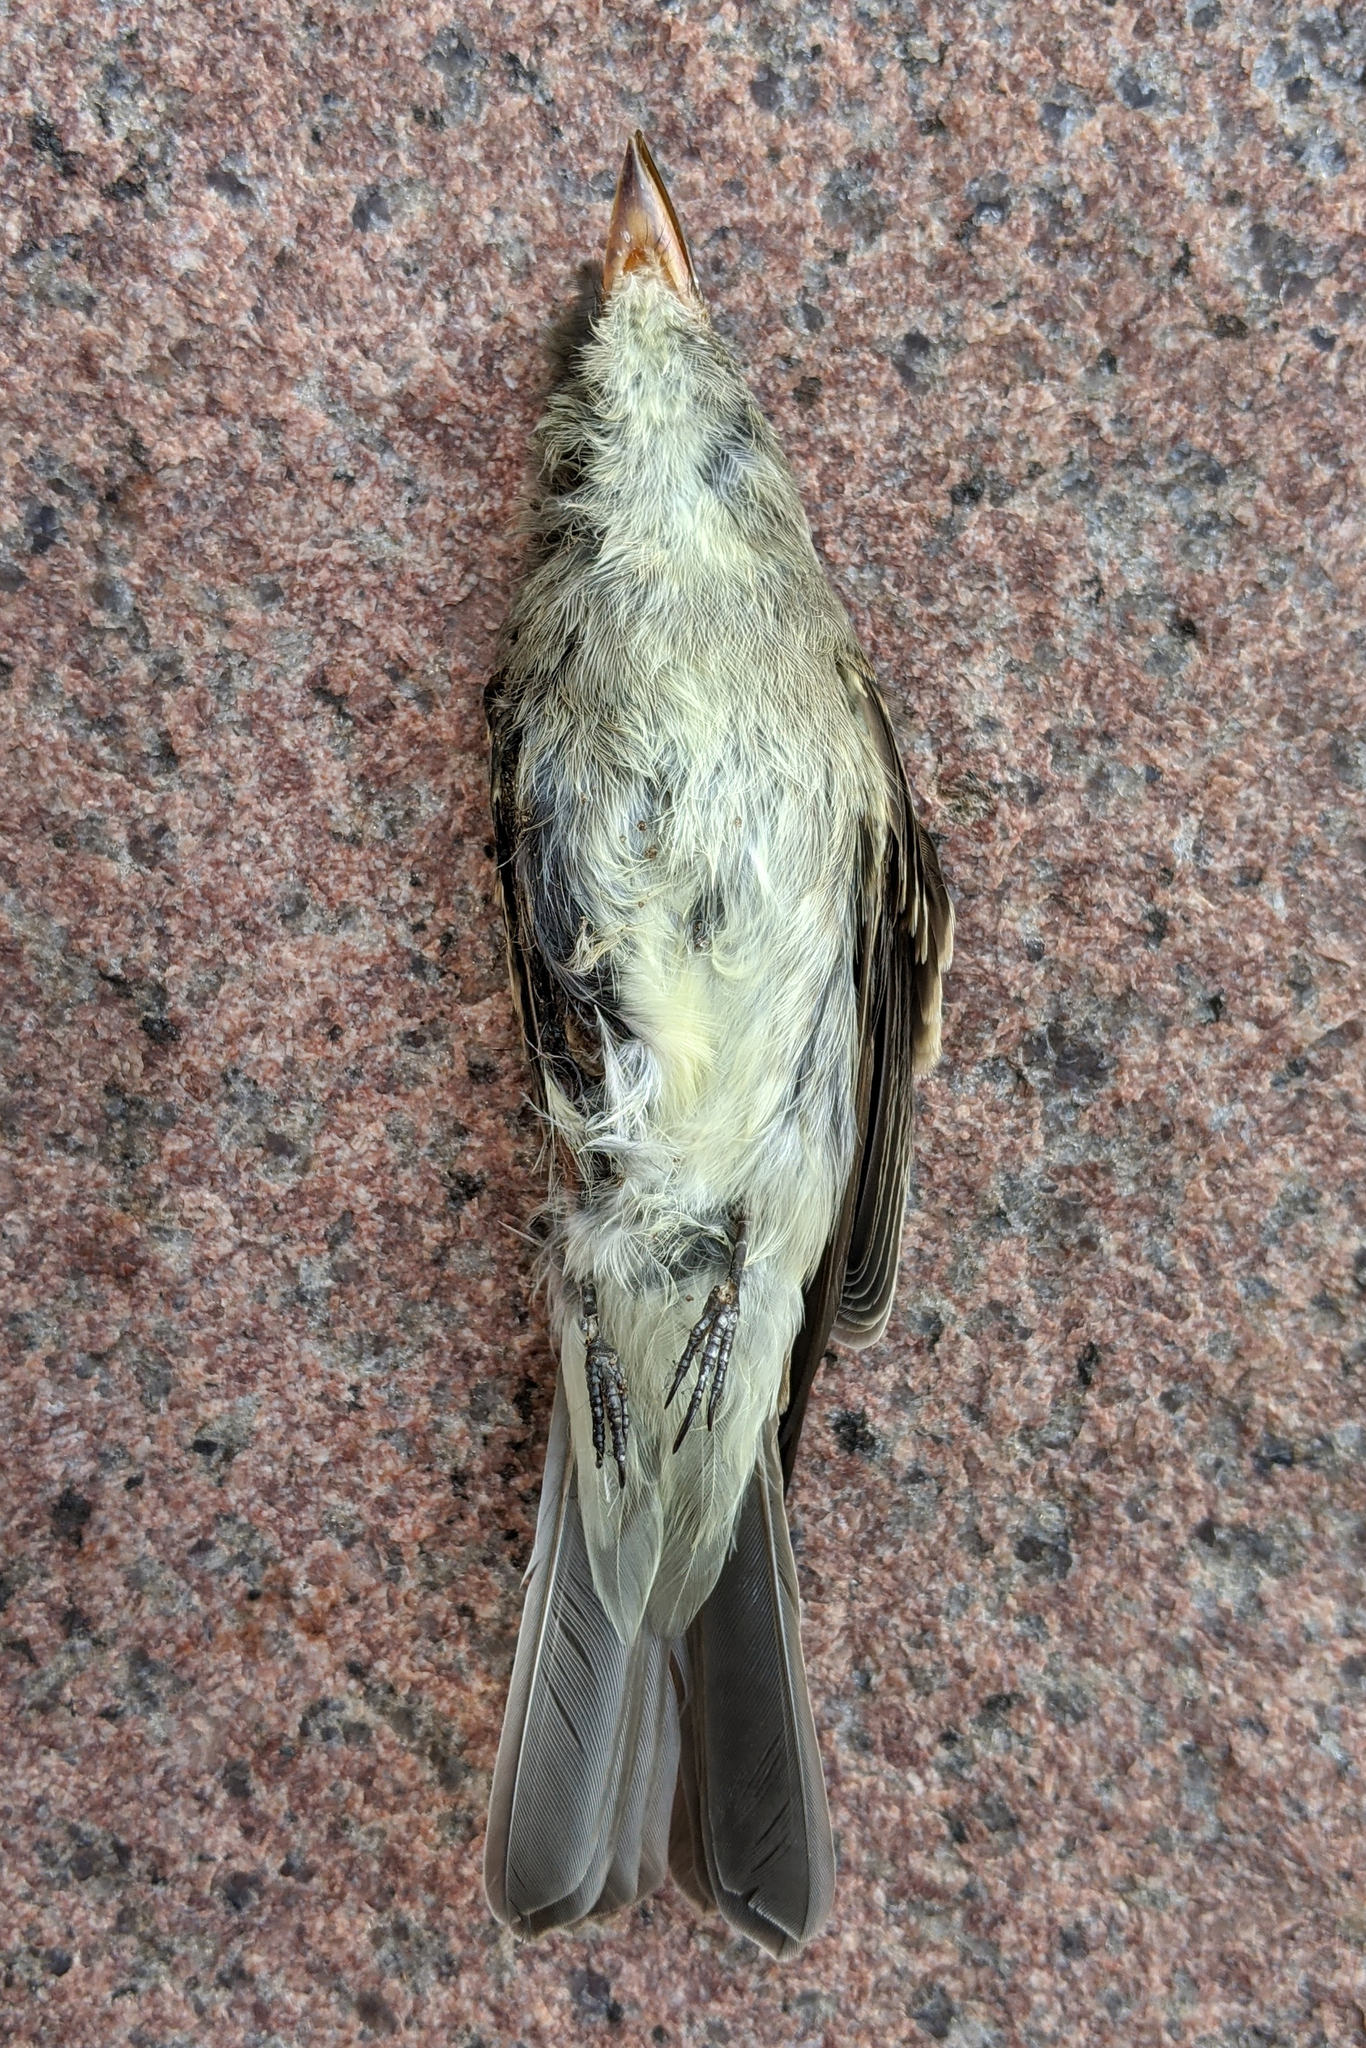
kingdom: Animalia
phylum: Chordata
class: Aves
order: Passeriformes
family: Tyrannidae
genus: Contopus
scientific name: Contopus virens
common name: Eastern wood-pewee
